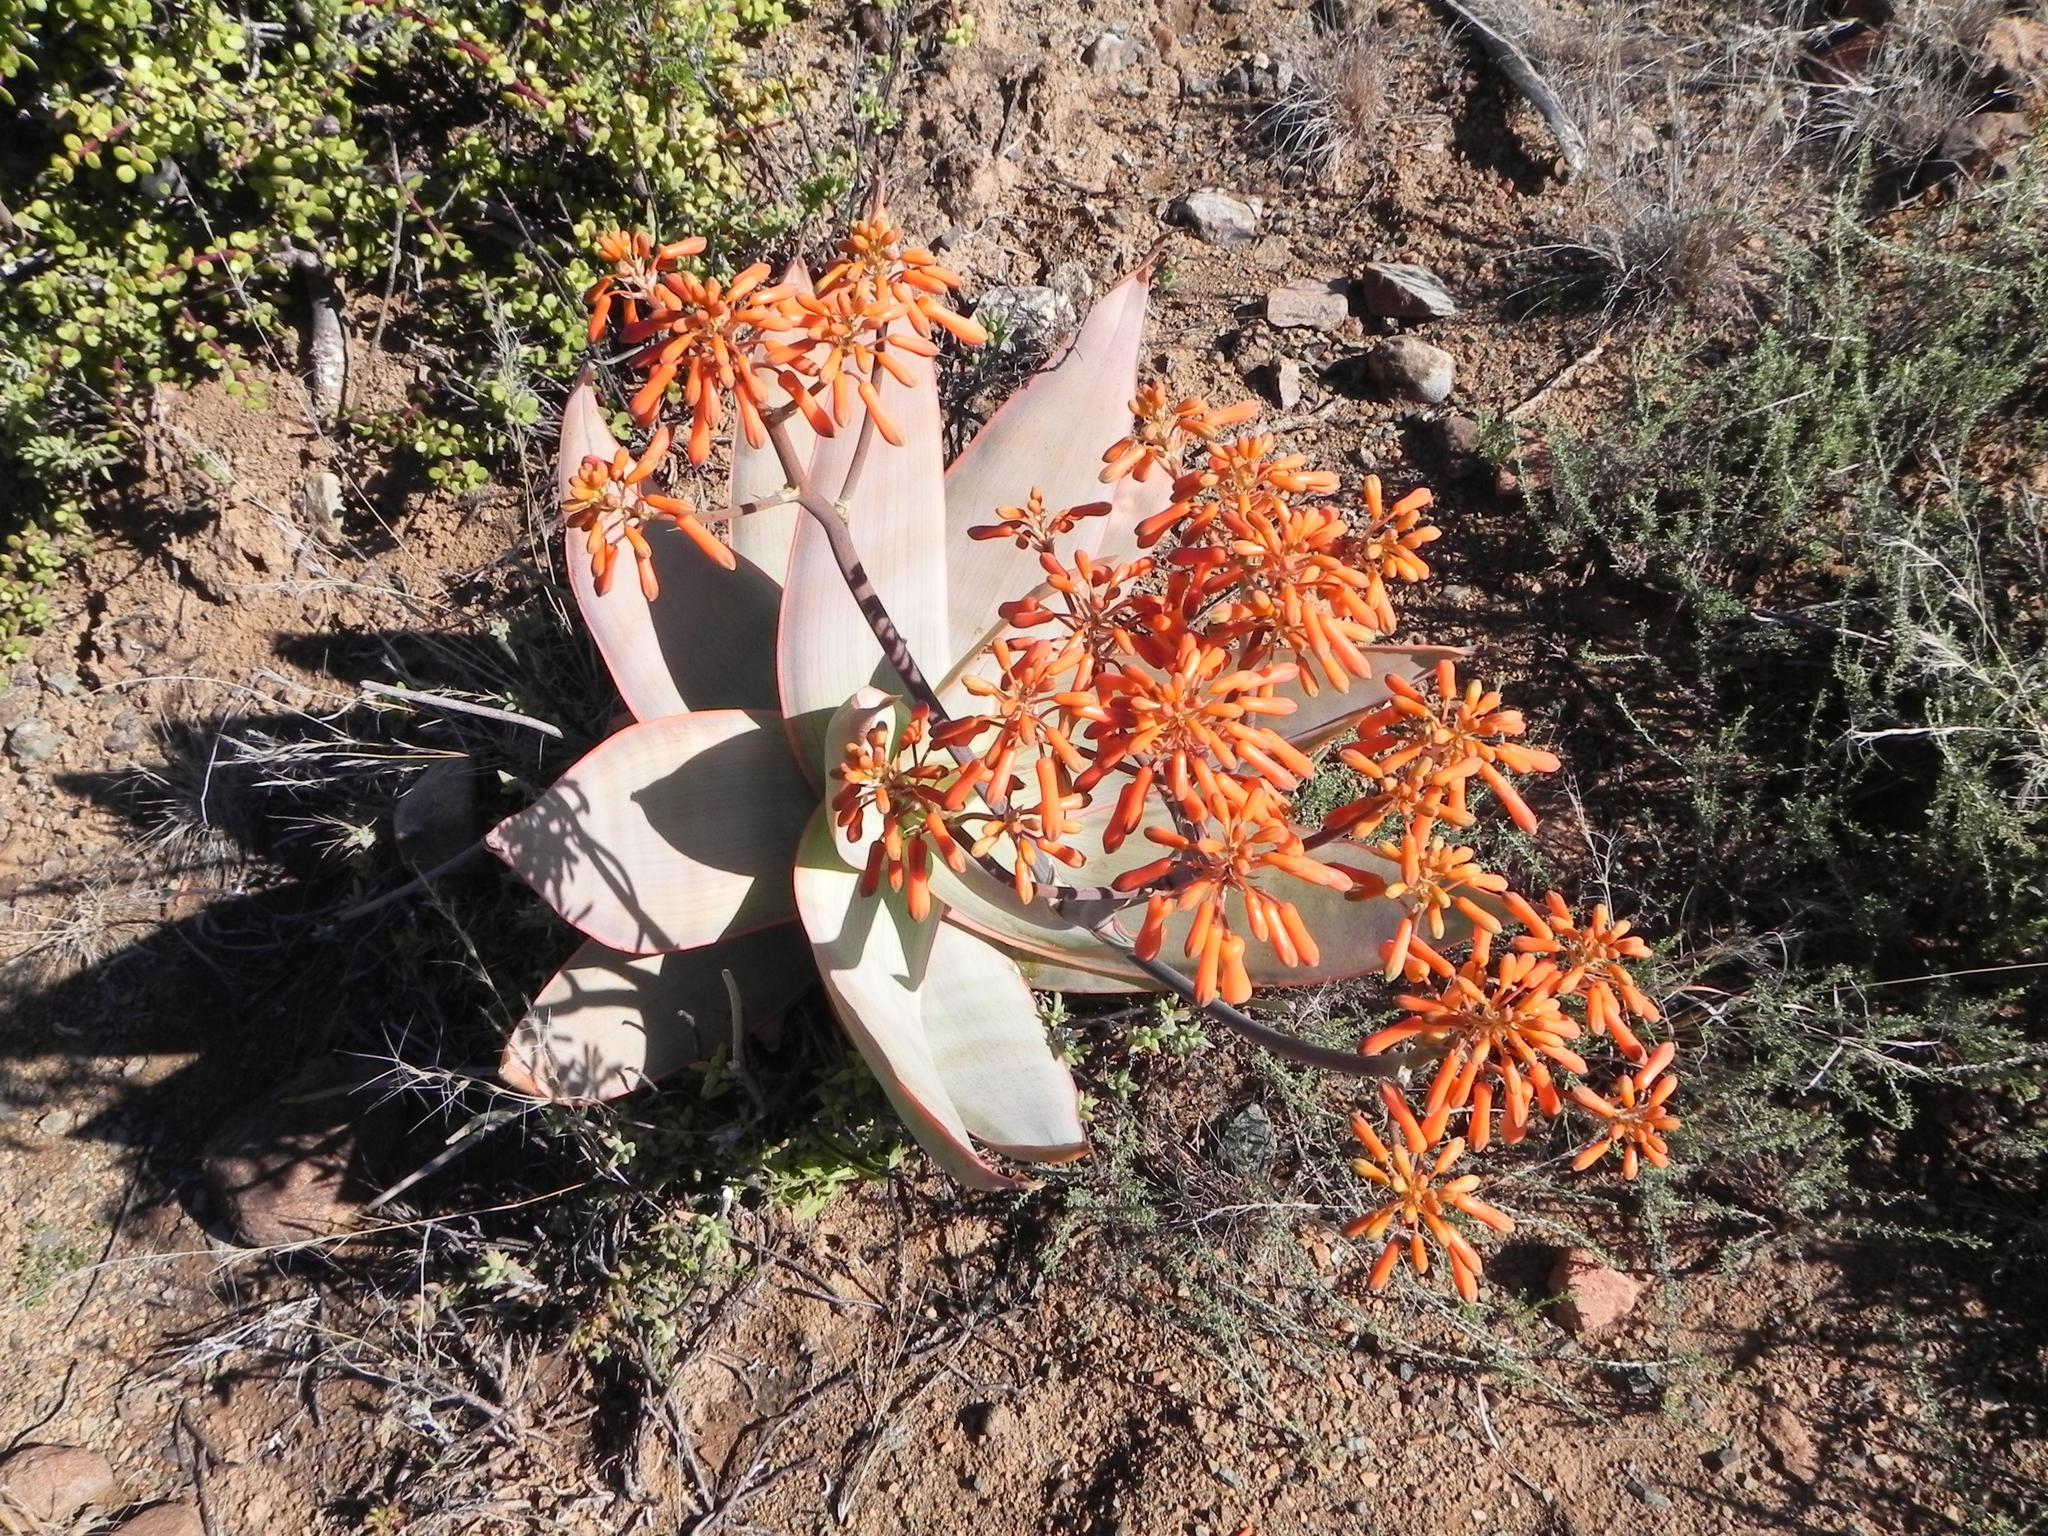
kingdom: Plantae
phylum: Tracheophyta
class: Liliopsida
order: Asparagales
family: Asphodelaceae
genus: Aloe
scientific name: Aloe striata
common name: Coral aloe
